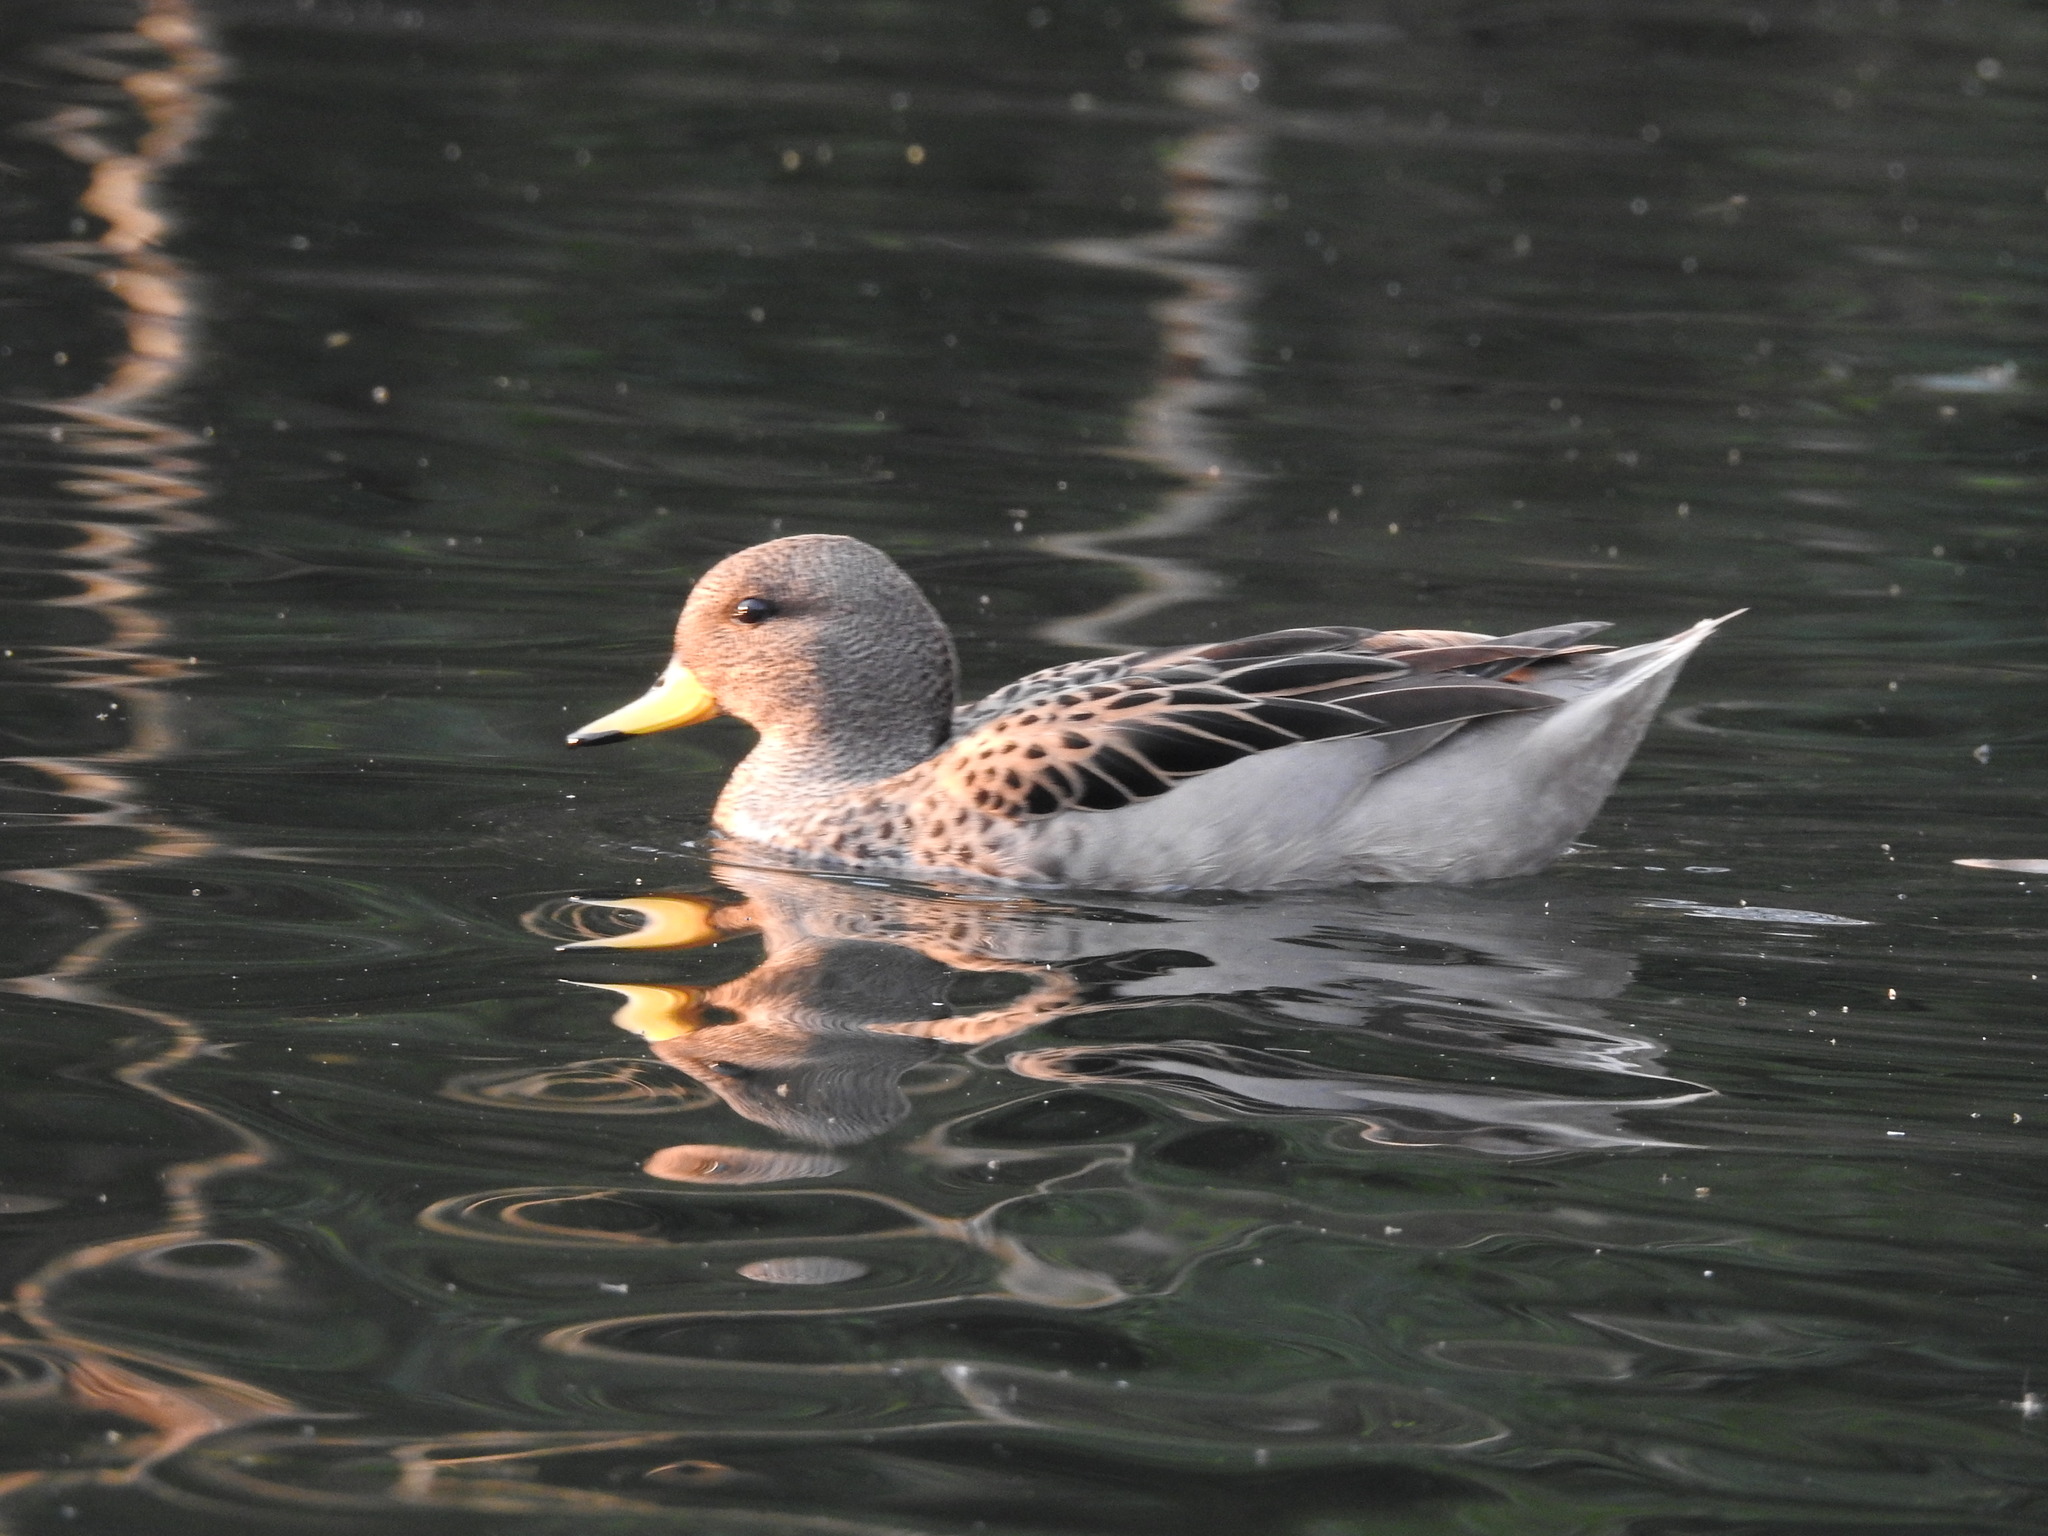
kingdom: Animalia
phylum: Chordata
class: Aves
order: Anseriformes
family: Anatidae
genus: Anas
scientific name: Anas flavirostris
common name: Yellow-billed teal
